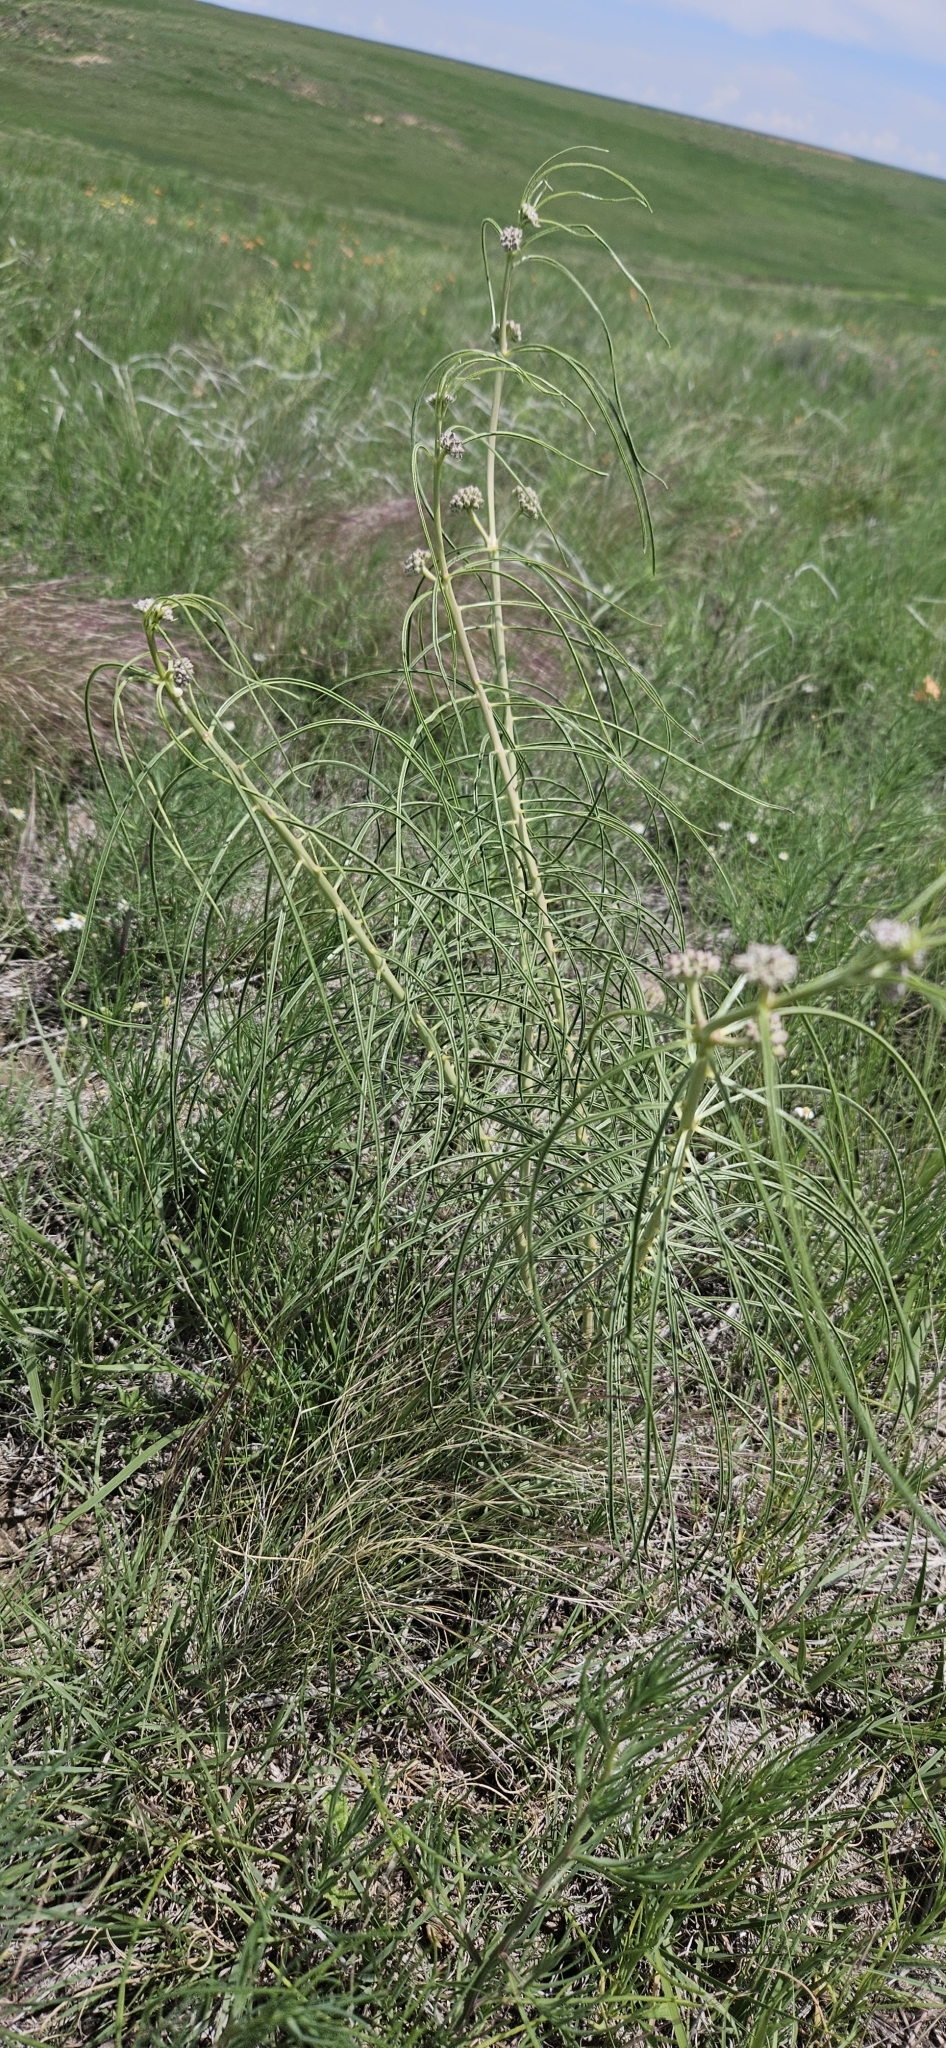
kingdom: Plantae
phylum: Tracheophyta
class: Magnoliopsida
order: Gentianales
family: Apocynaceae
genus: Asclepias
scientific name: Asclepias engelmanniana
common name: Engelmann's milkweed
